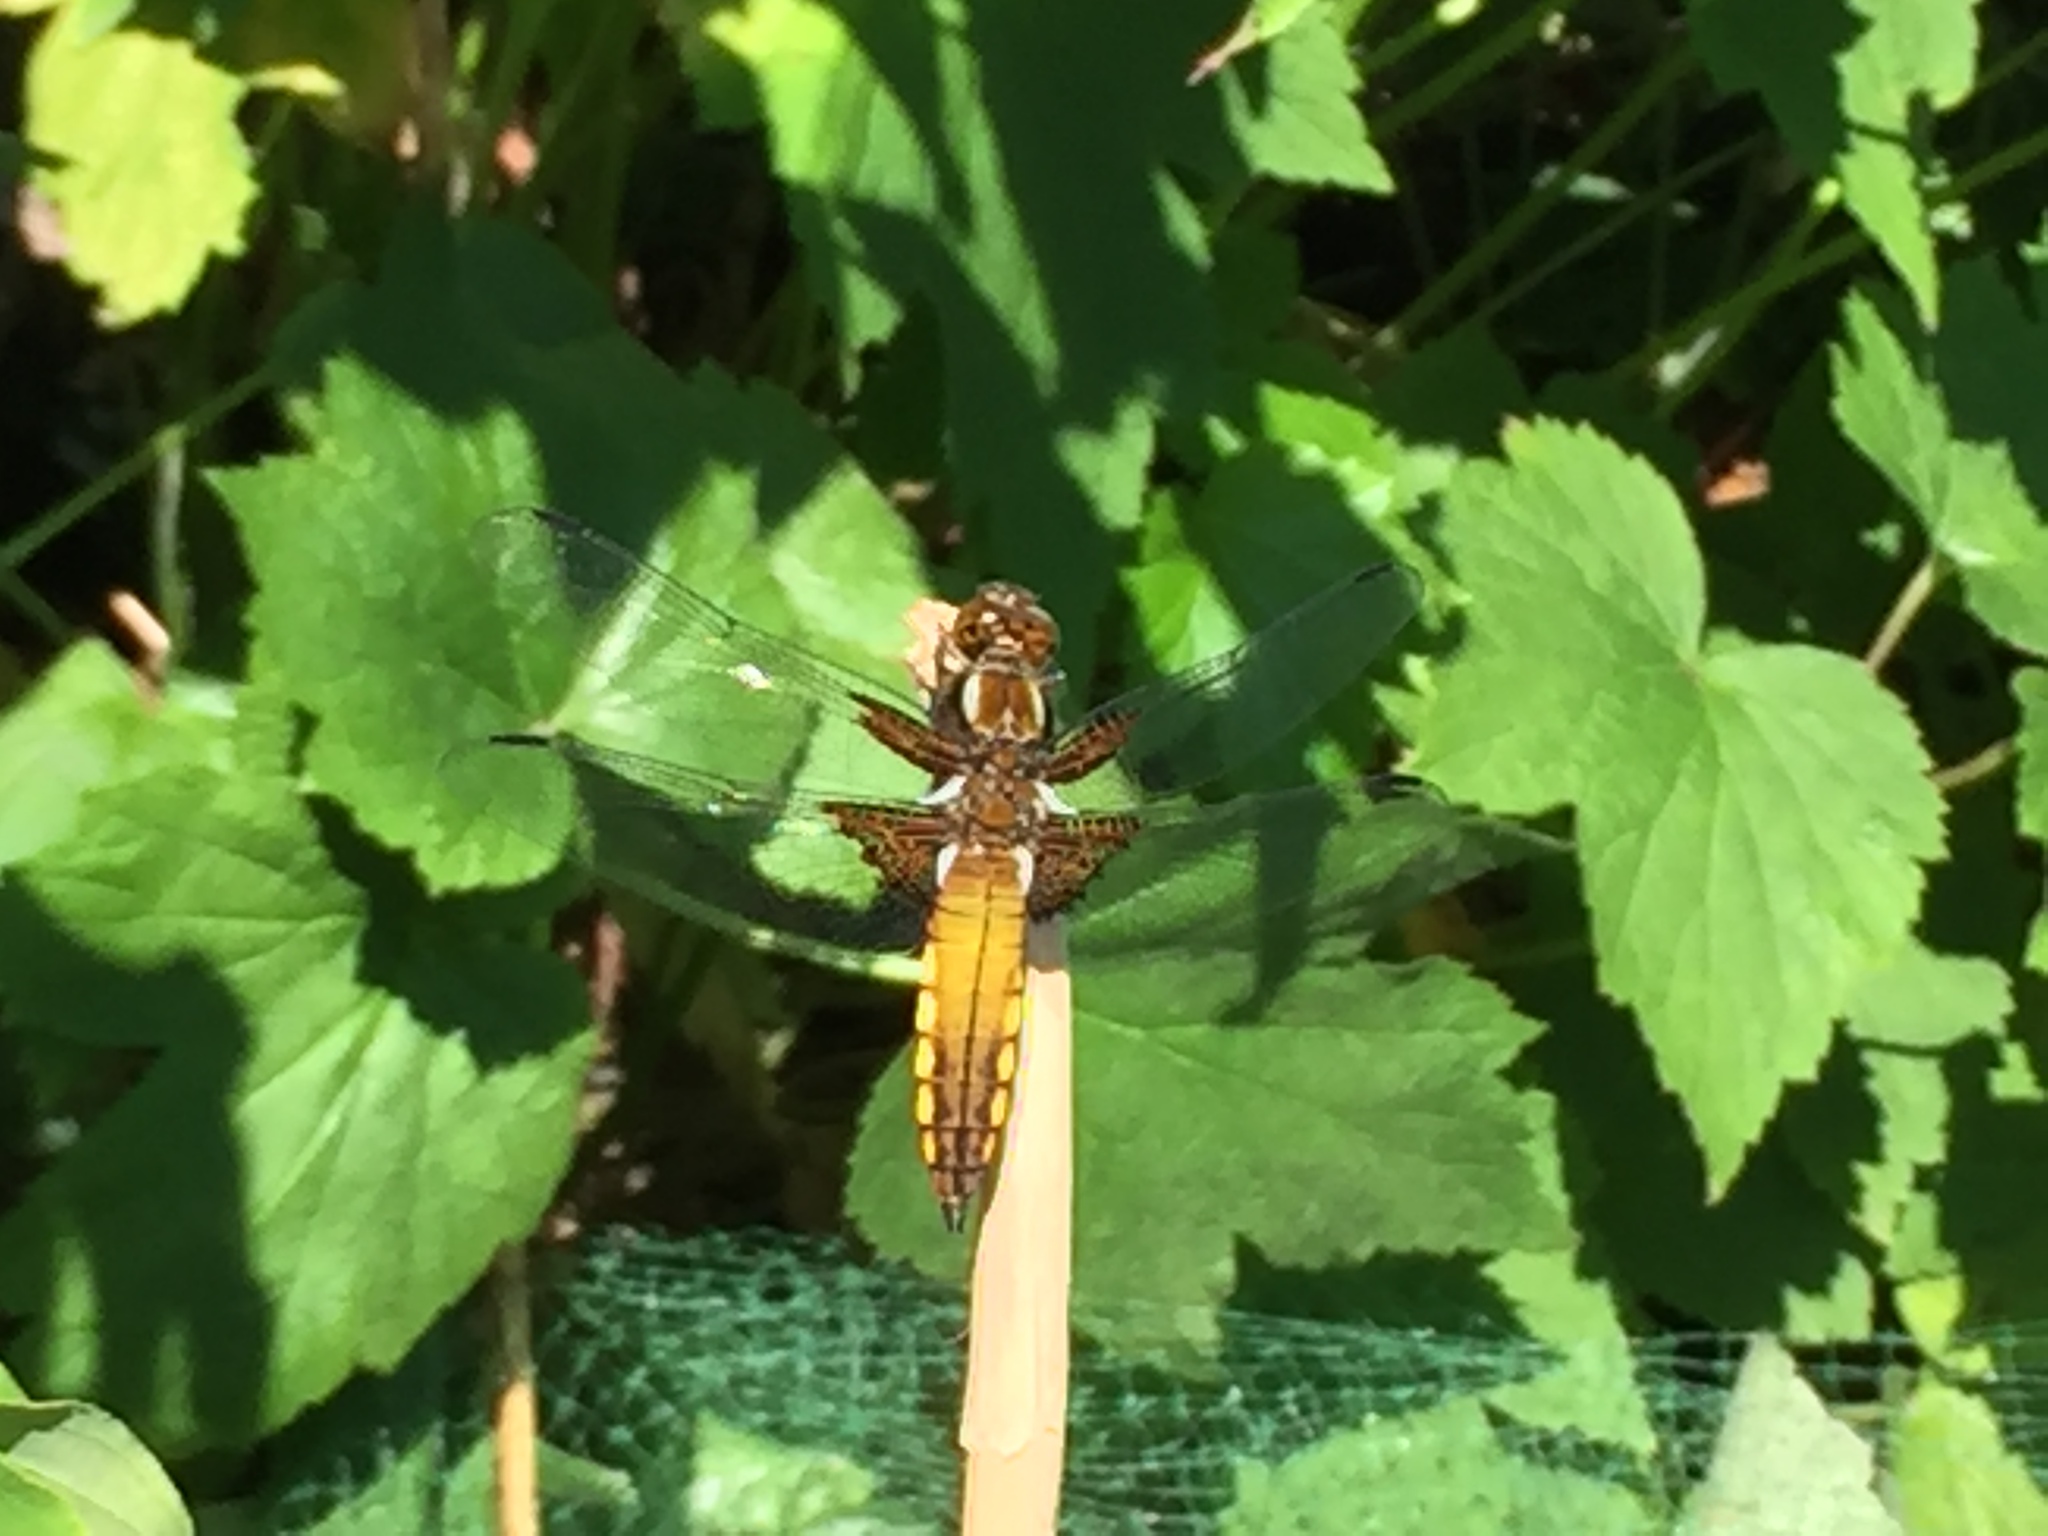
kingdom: Animalia
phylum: Arthropoda
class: Insecta
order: Odonata
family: Libellulidae
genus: Libellula
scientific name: Libellula depressa
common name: Broad-bodied chaser
